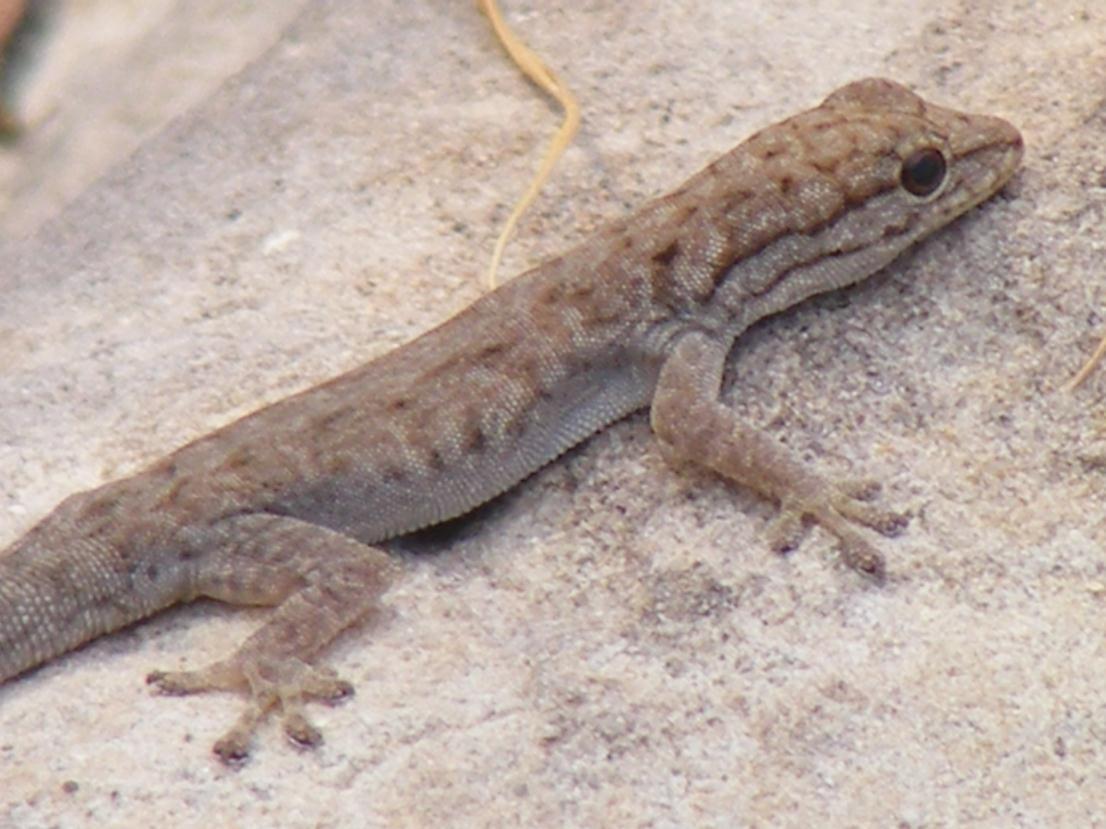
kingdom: Animalia
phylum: Chordata
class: Squamata
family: Gekkonidae
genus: Lygodactylus
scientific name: Lygodactylus stevensoni
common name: Stevenson's dwarf gecko
